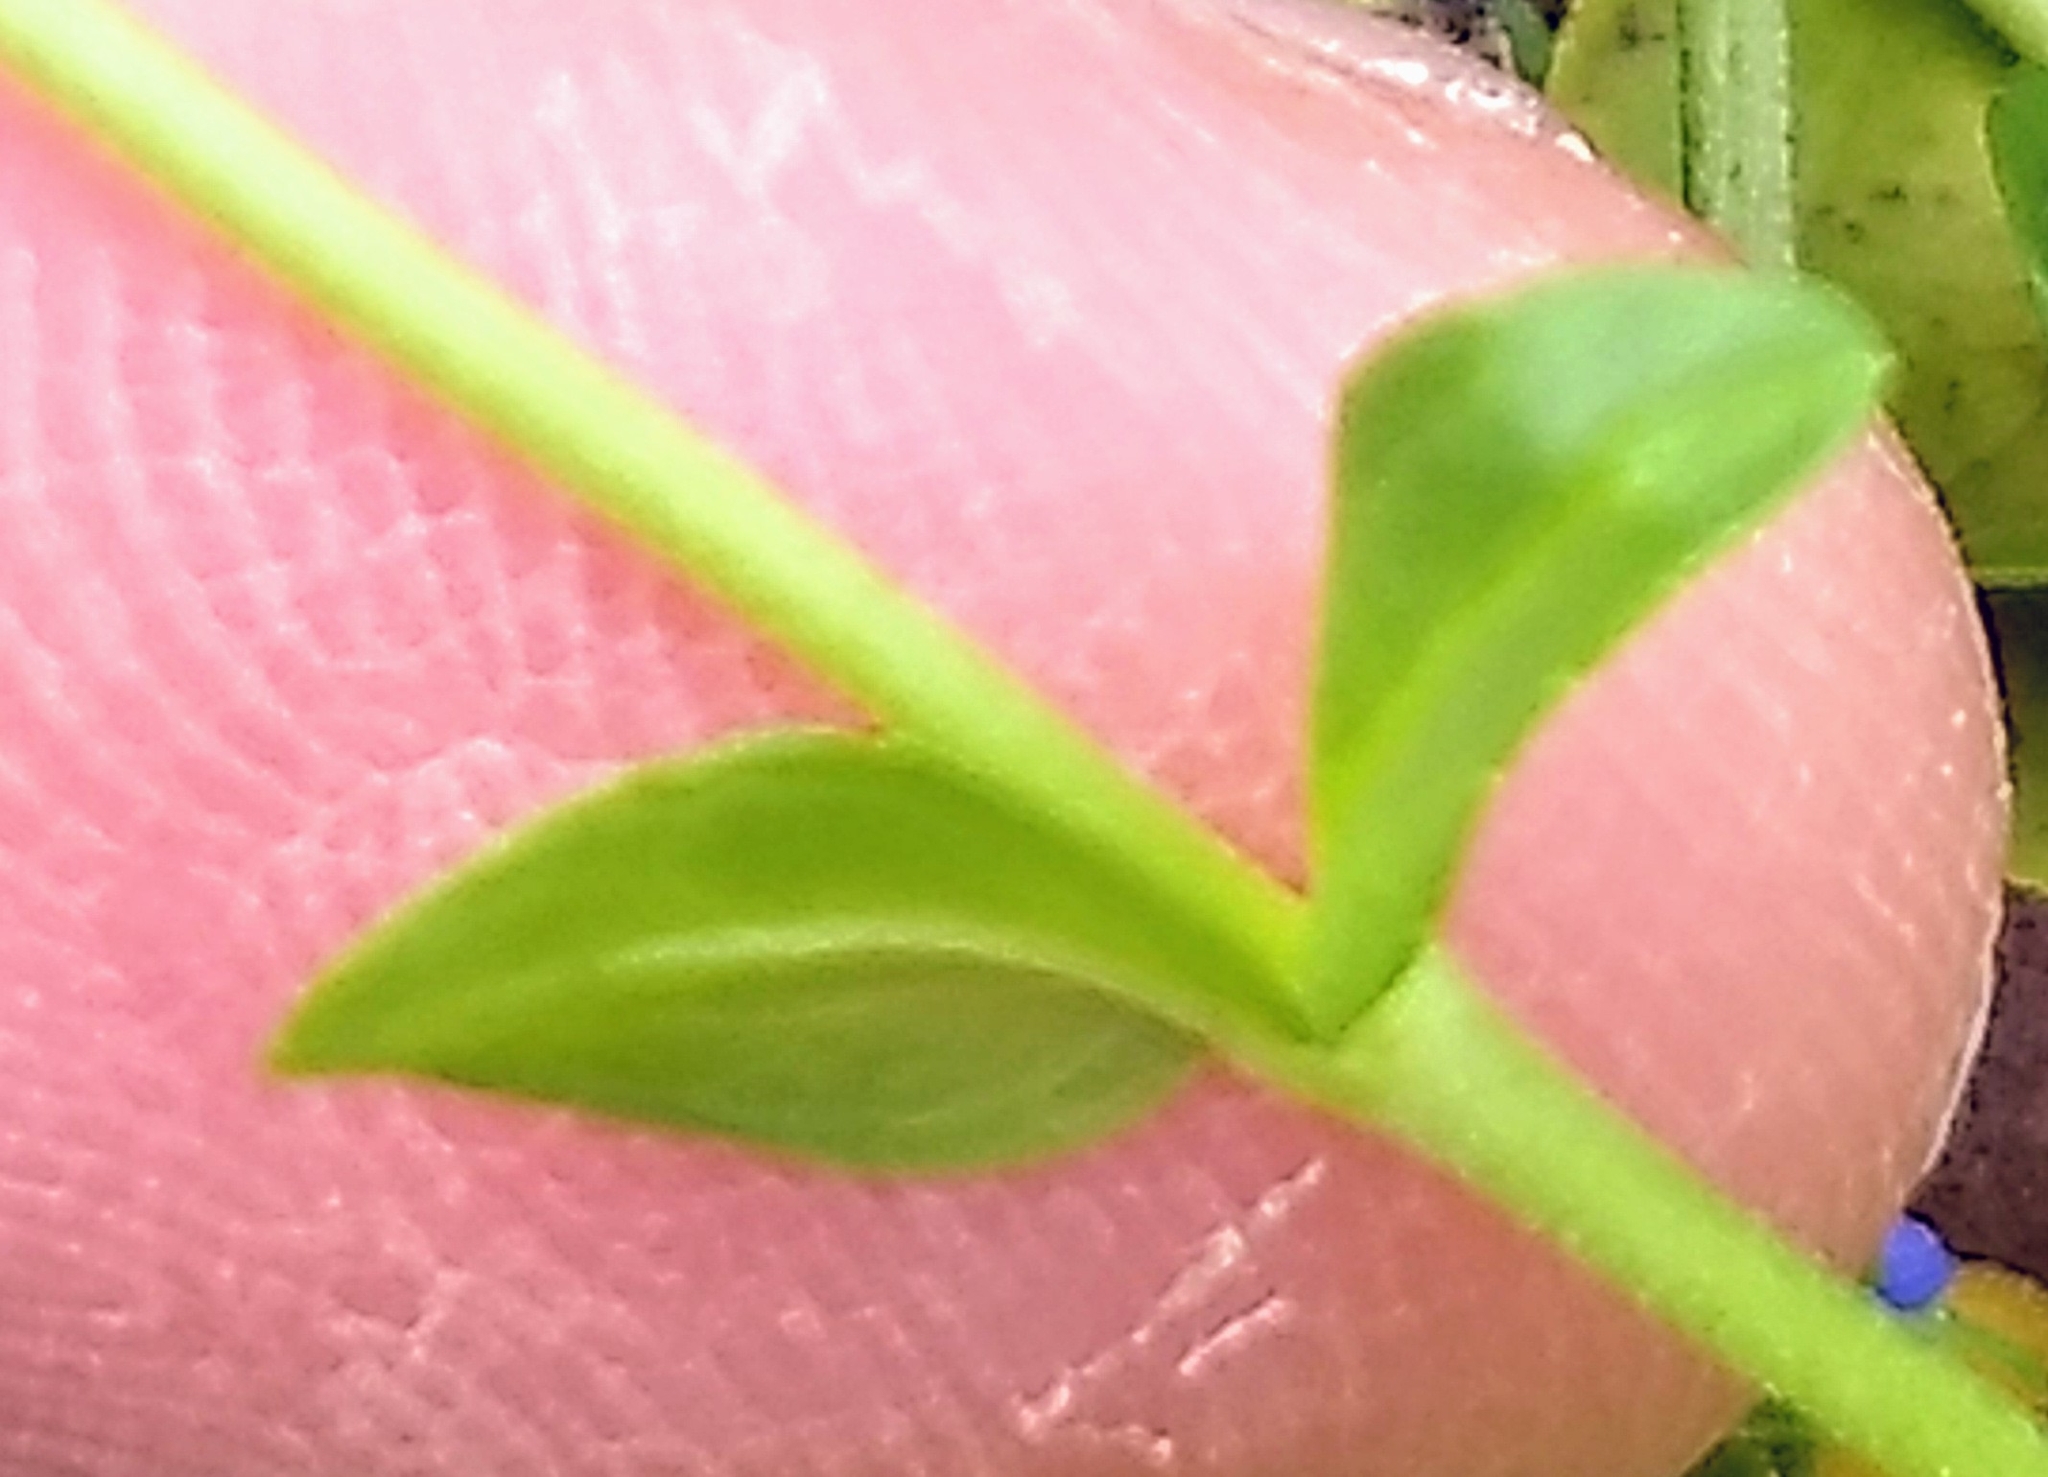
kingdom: Plantae
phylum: Tracheophyta
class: Magnoliopsida
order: Lamiales
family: Plantaginaceae
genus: Veronica
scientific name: Veronica serpyllifolia
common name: Thyme-leaved speedwell
